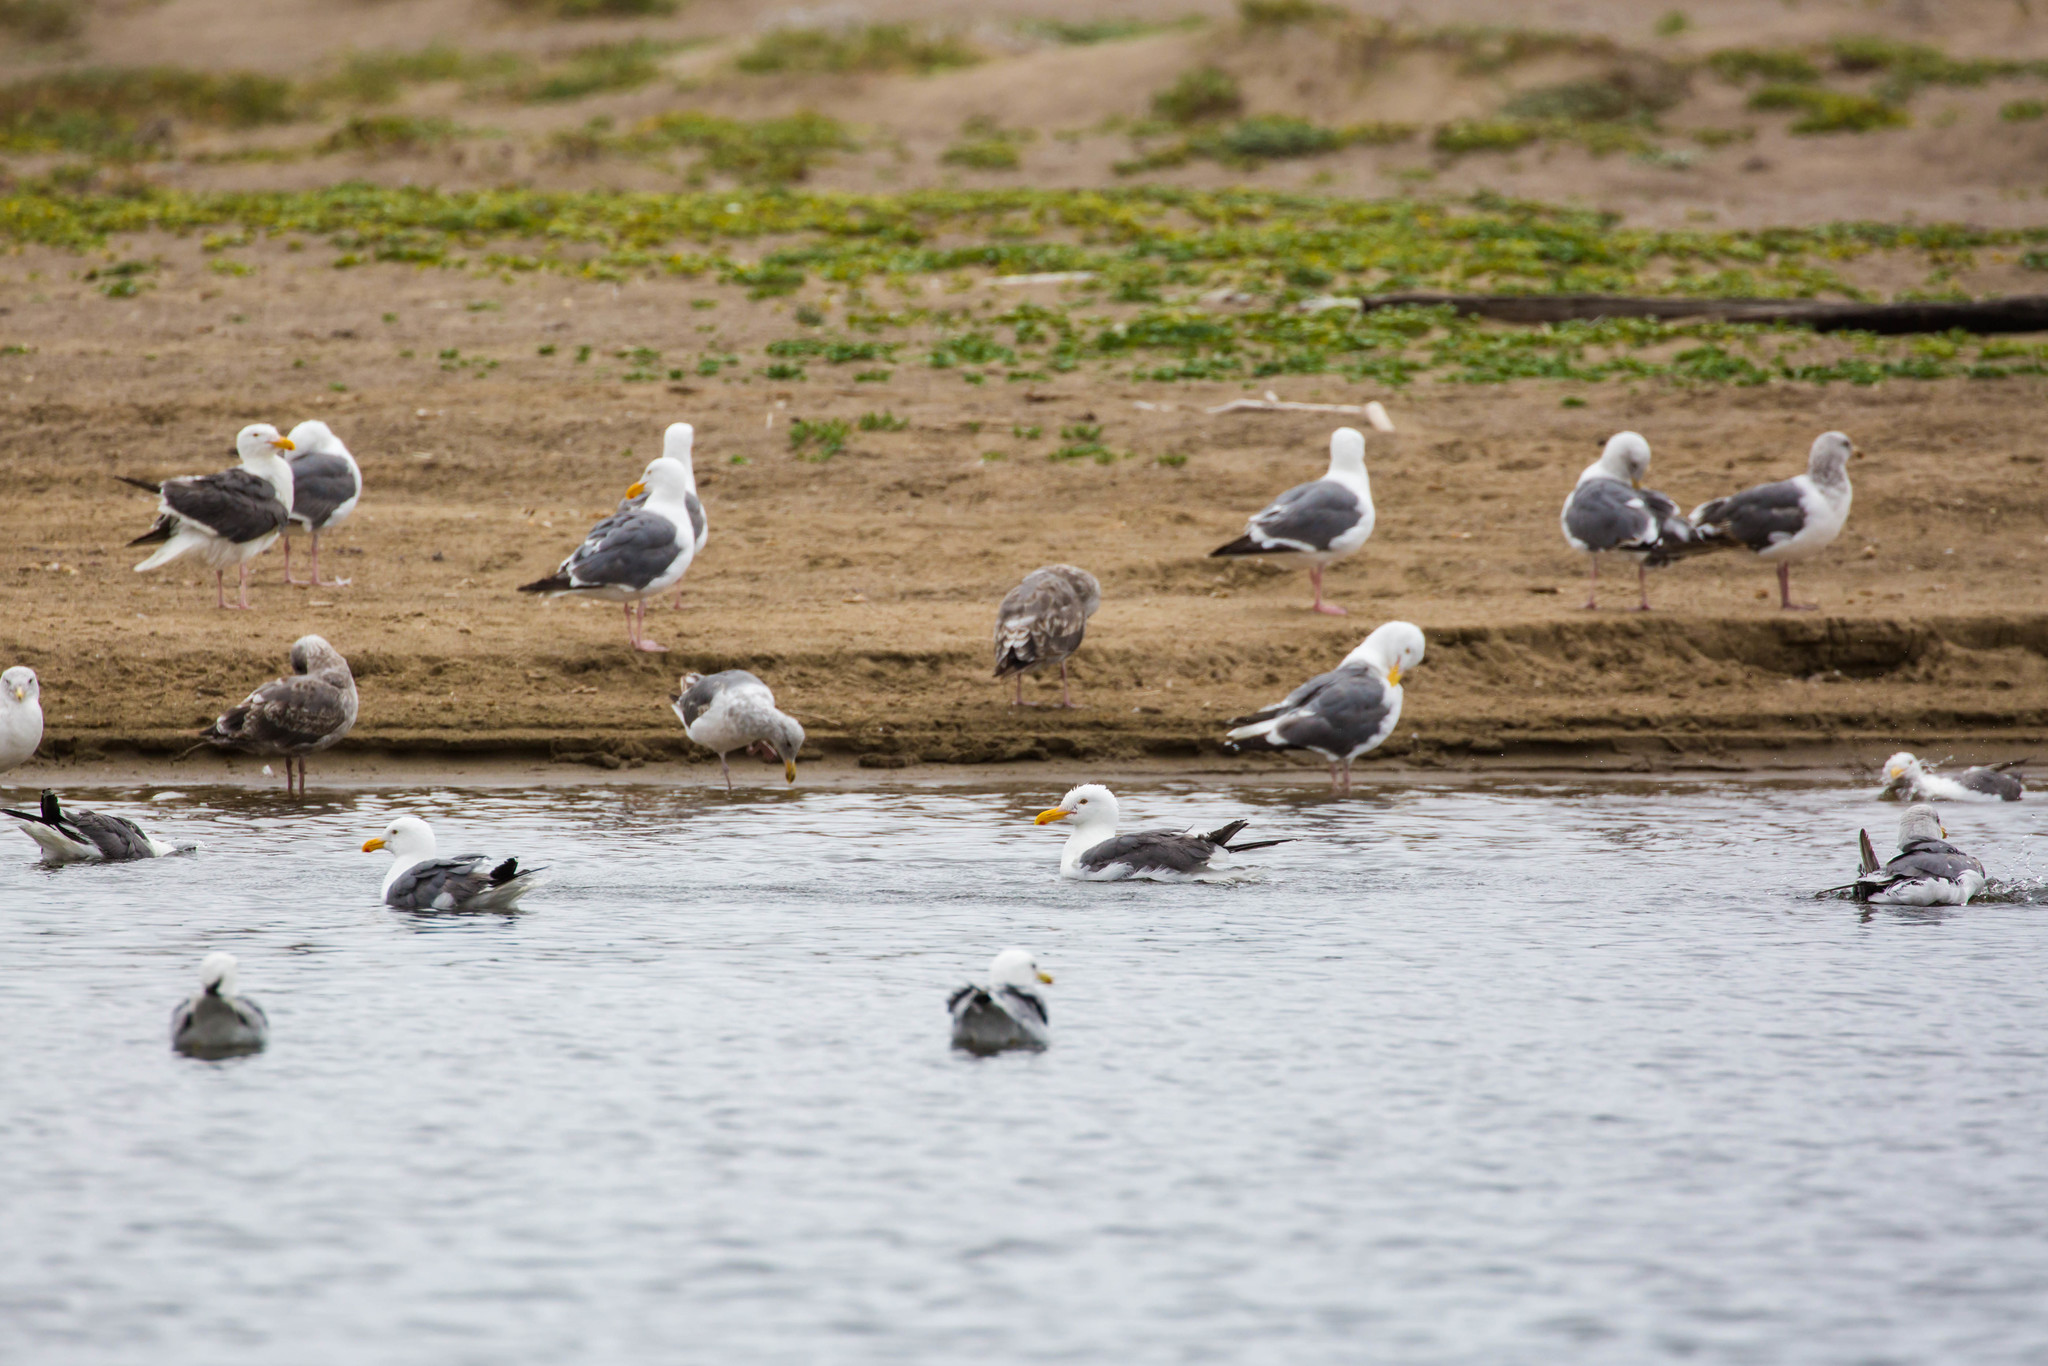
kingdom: Animalia
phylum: Chordata
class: Aves
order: Charadriiformes
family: Laridae
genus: Larus
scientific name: Larus occidentalis
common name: Western gull
